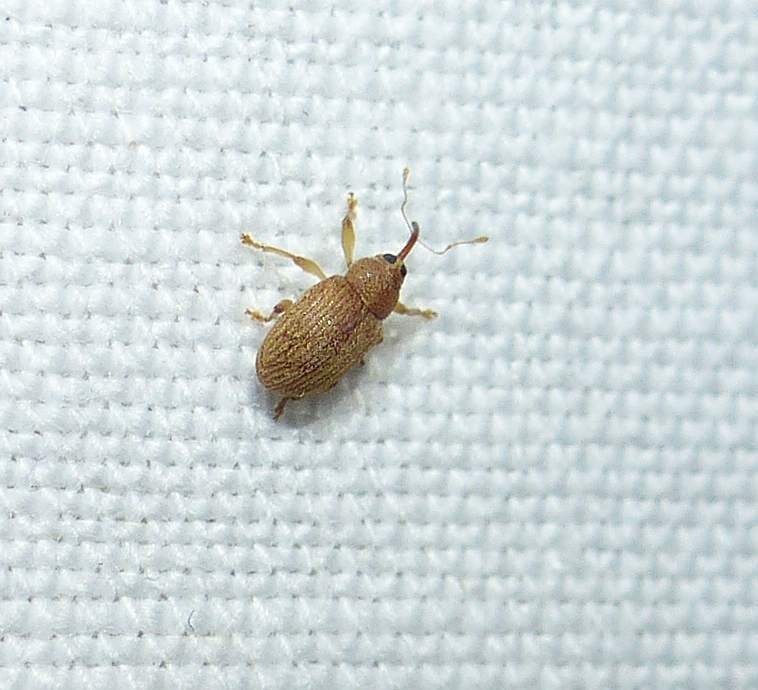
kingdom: Animalia
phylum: Arthropoda
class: Insecta
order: Coleoptera
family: Curculionidae
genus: Lignyodes
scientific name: Lignyodes helvolus
